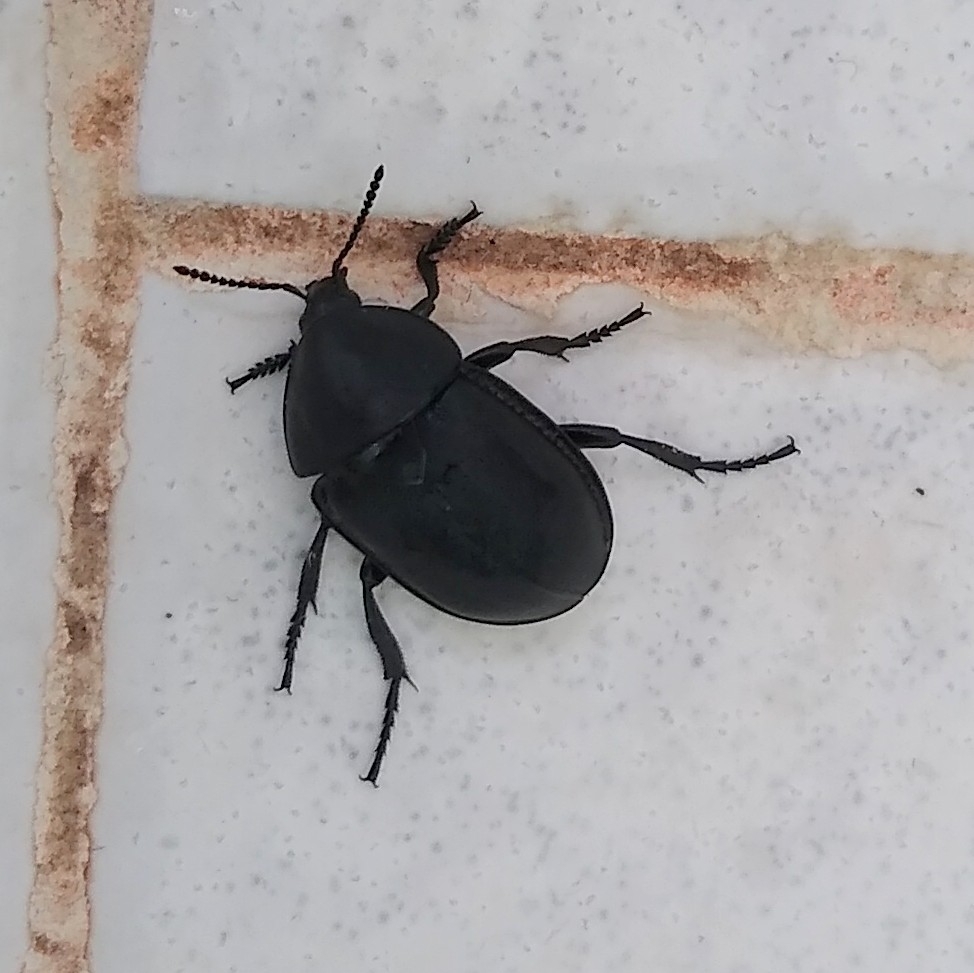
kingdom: Animalia
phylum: Arthropoda
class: Insecta
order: Coleoptera
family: Staphylinidae
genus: Silpha
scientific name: Silpha laevigata
